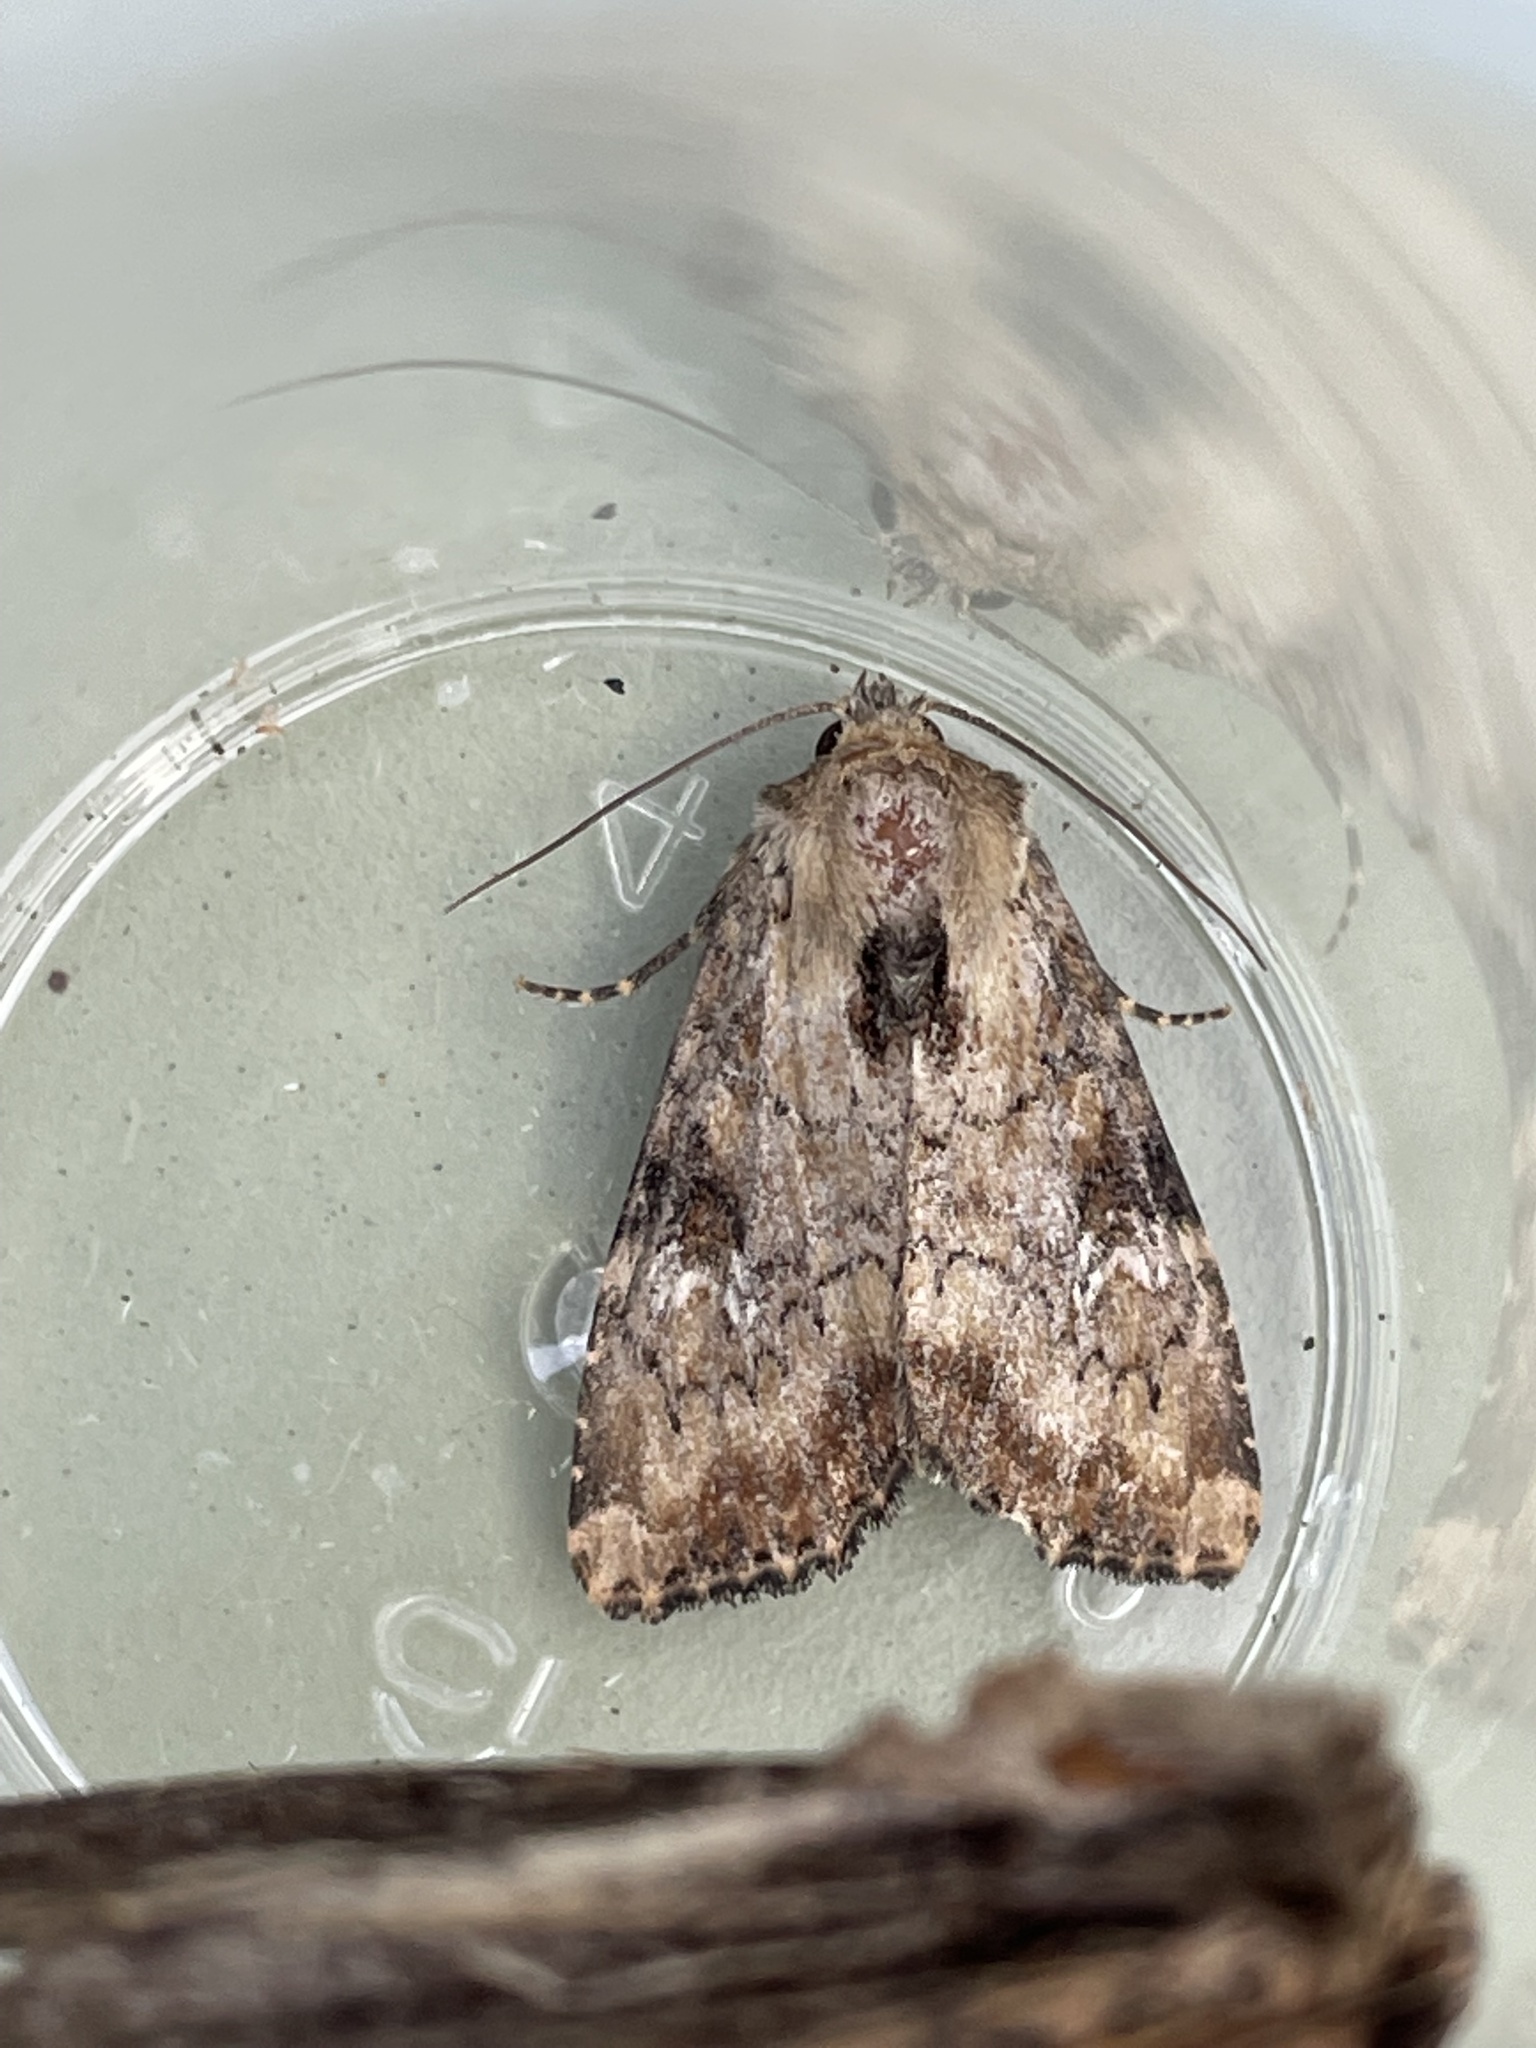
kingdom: Animalia
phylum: Arthropoda
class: Insecta
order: Lepidoptera
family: Noctuidae
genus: Loscopia
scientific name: Loscopia scolopacina
